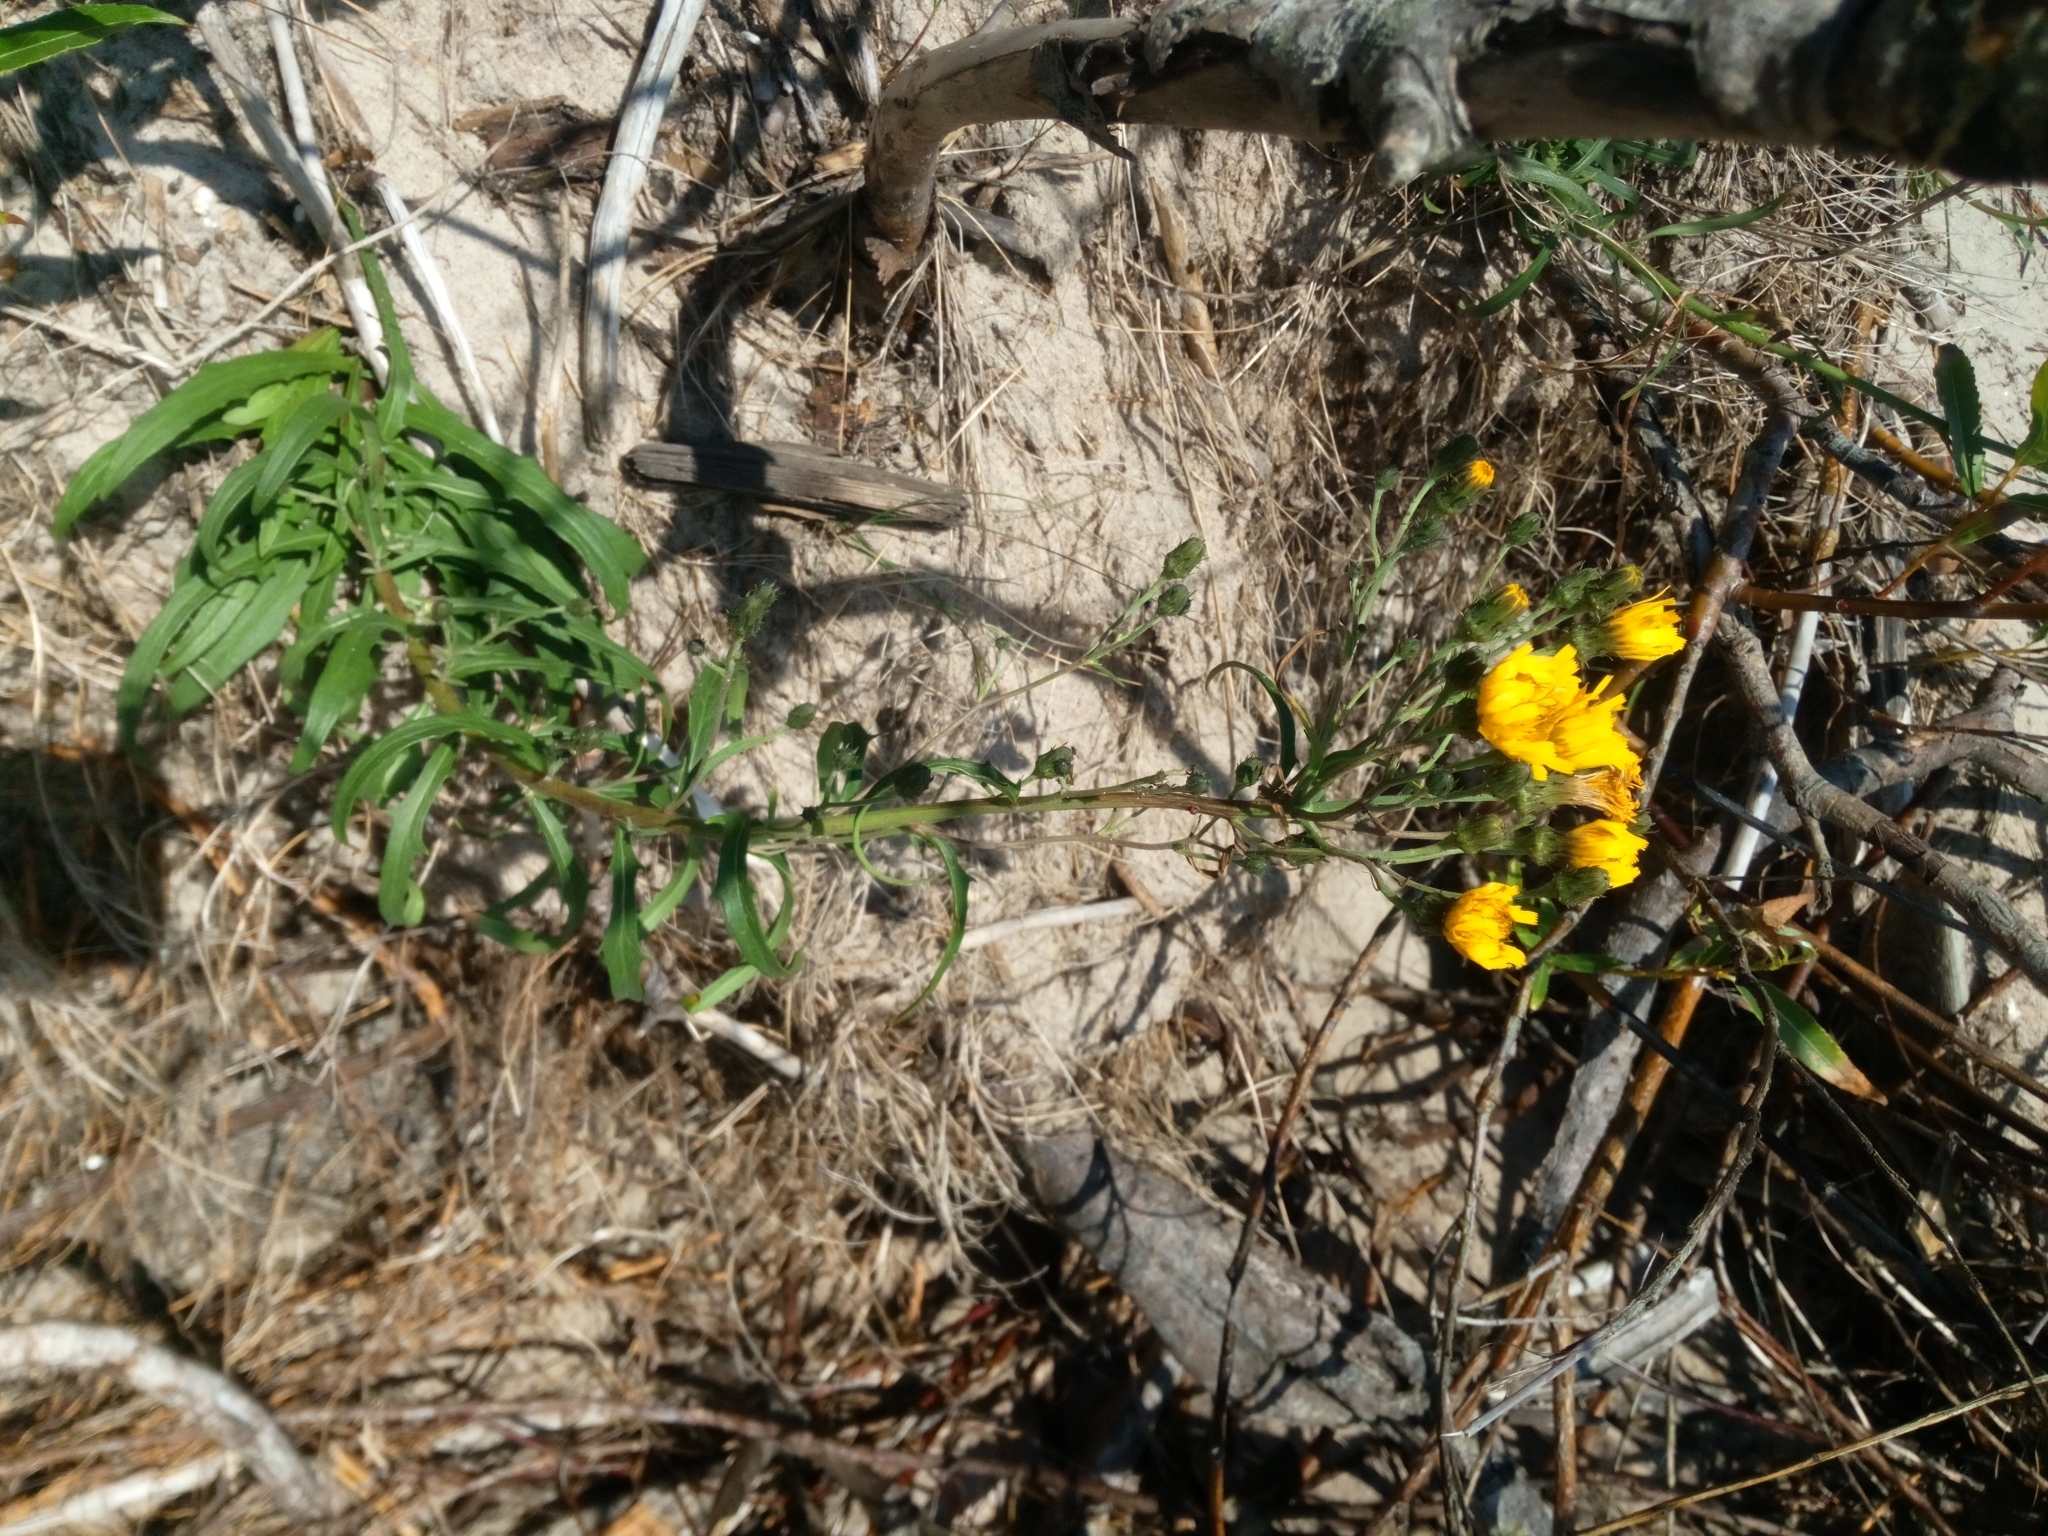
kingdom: Plantae
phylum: Tracheophyta
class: Magnoliopsida
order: Asterales
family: Asteraceae
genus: Hieracium
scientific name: Hieracium umbellatum
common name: Northern hawkweed
